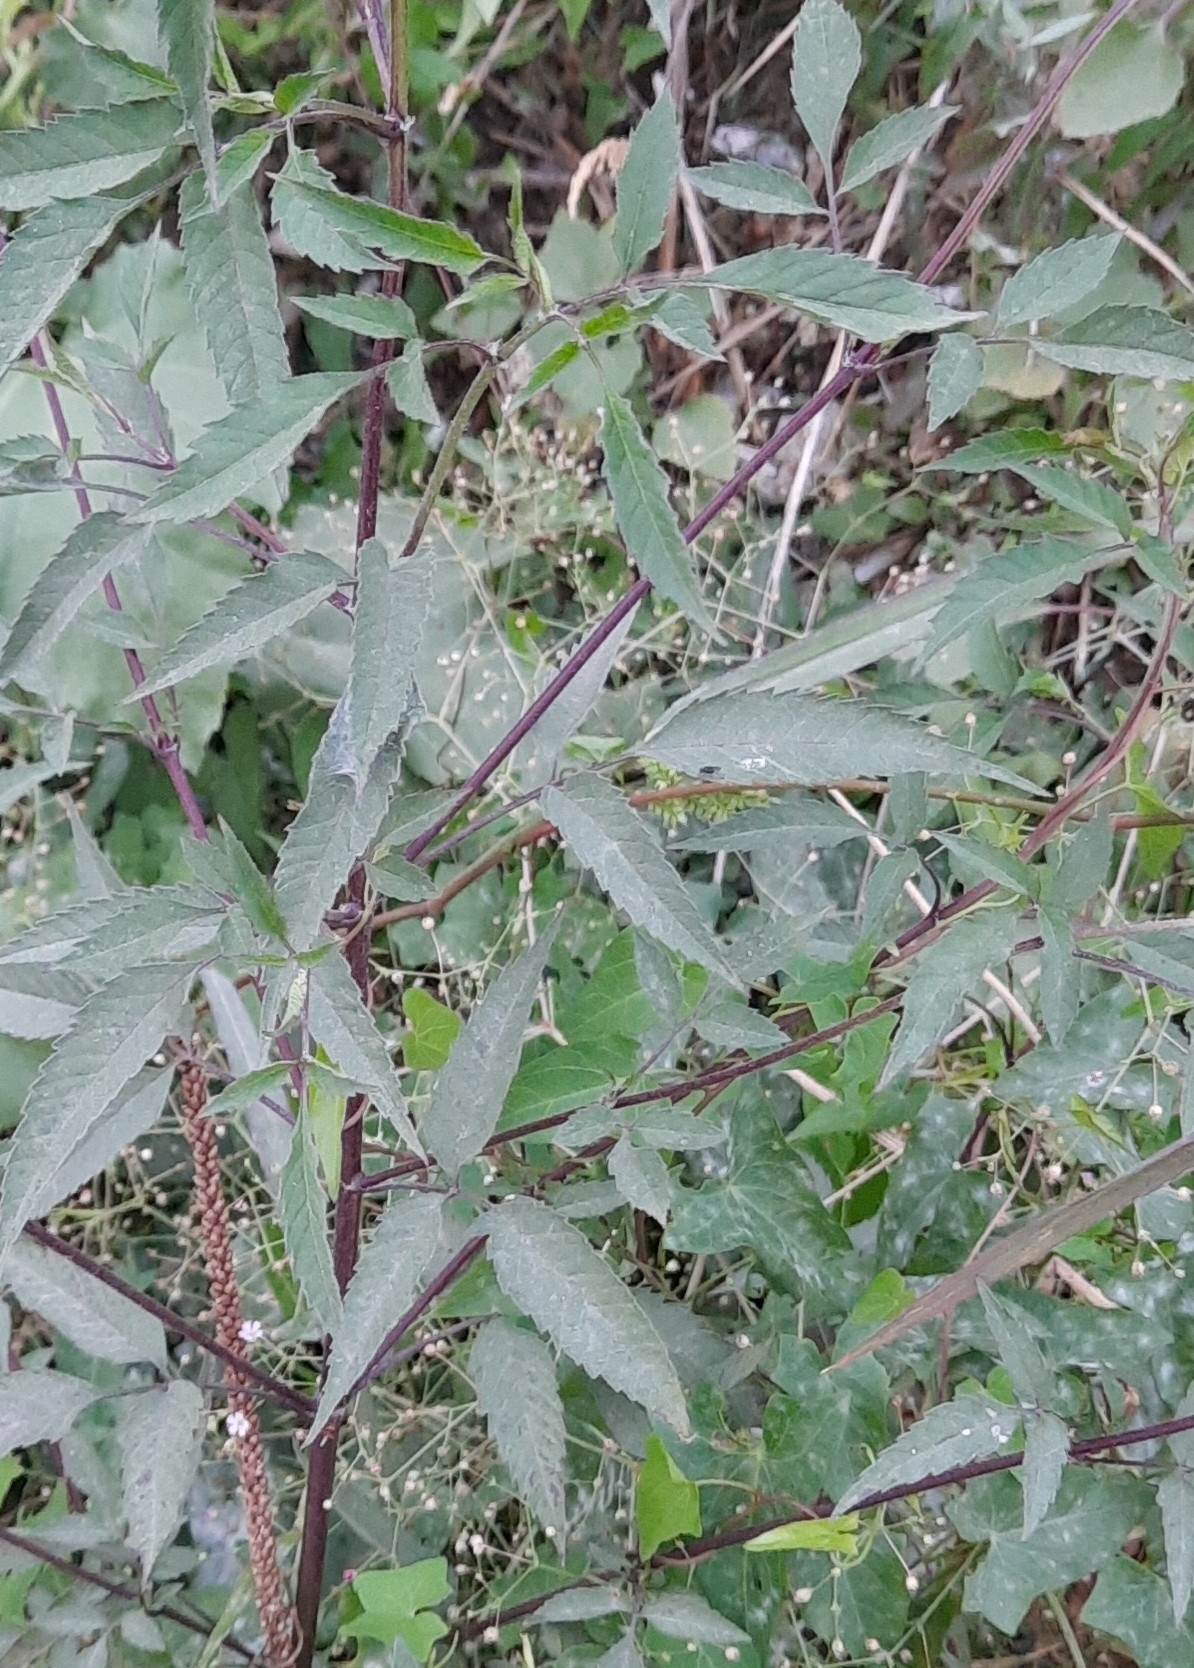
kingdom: Plantae
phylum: Tracheophyta
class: Magnoliopsida
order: Asterales
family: Asteraceae
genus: Bidens
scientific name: Bidens frondosa
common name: Beggarticks
